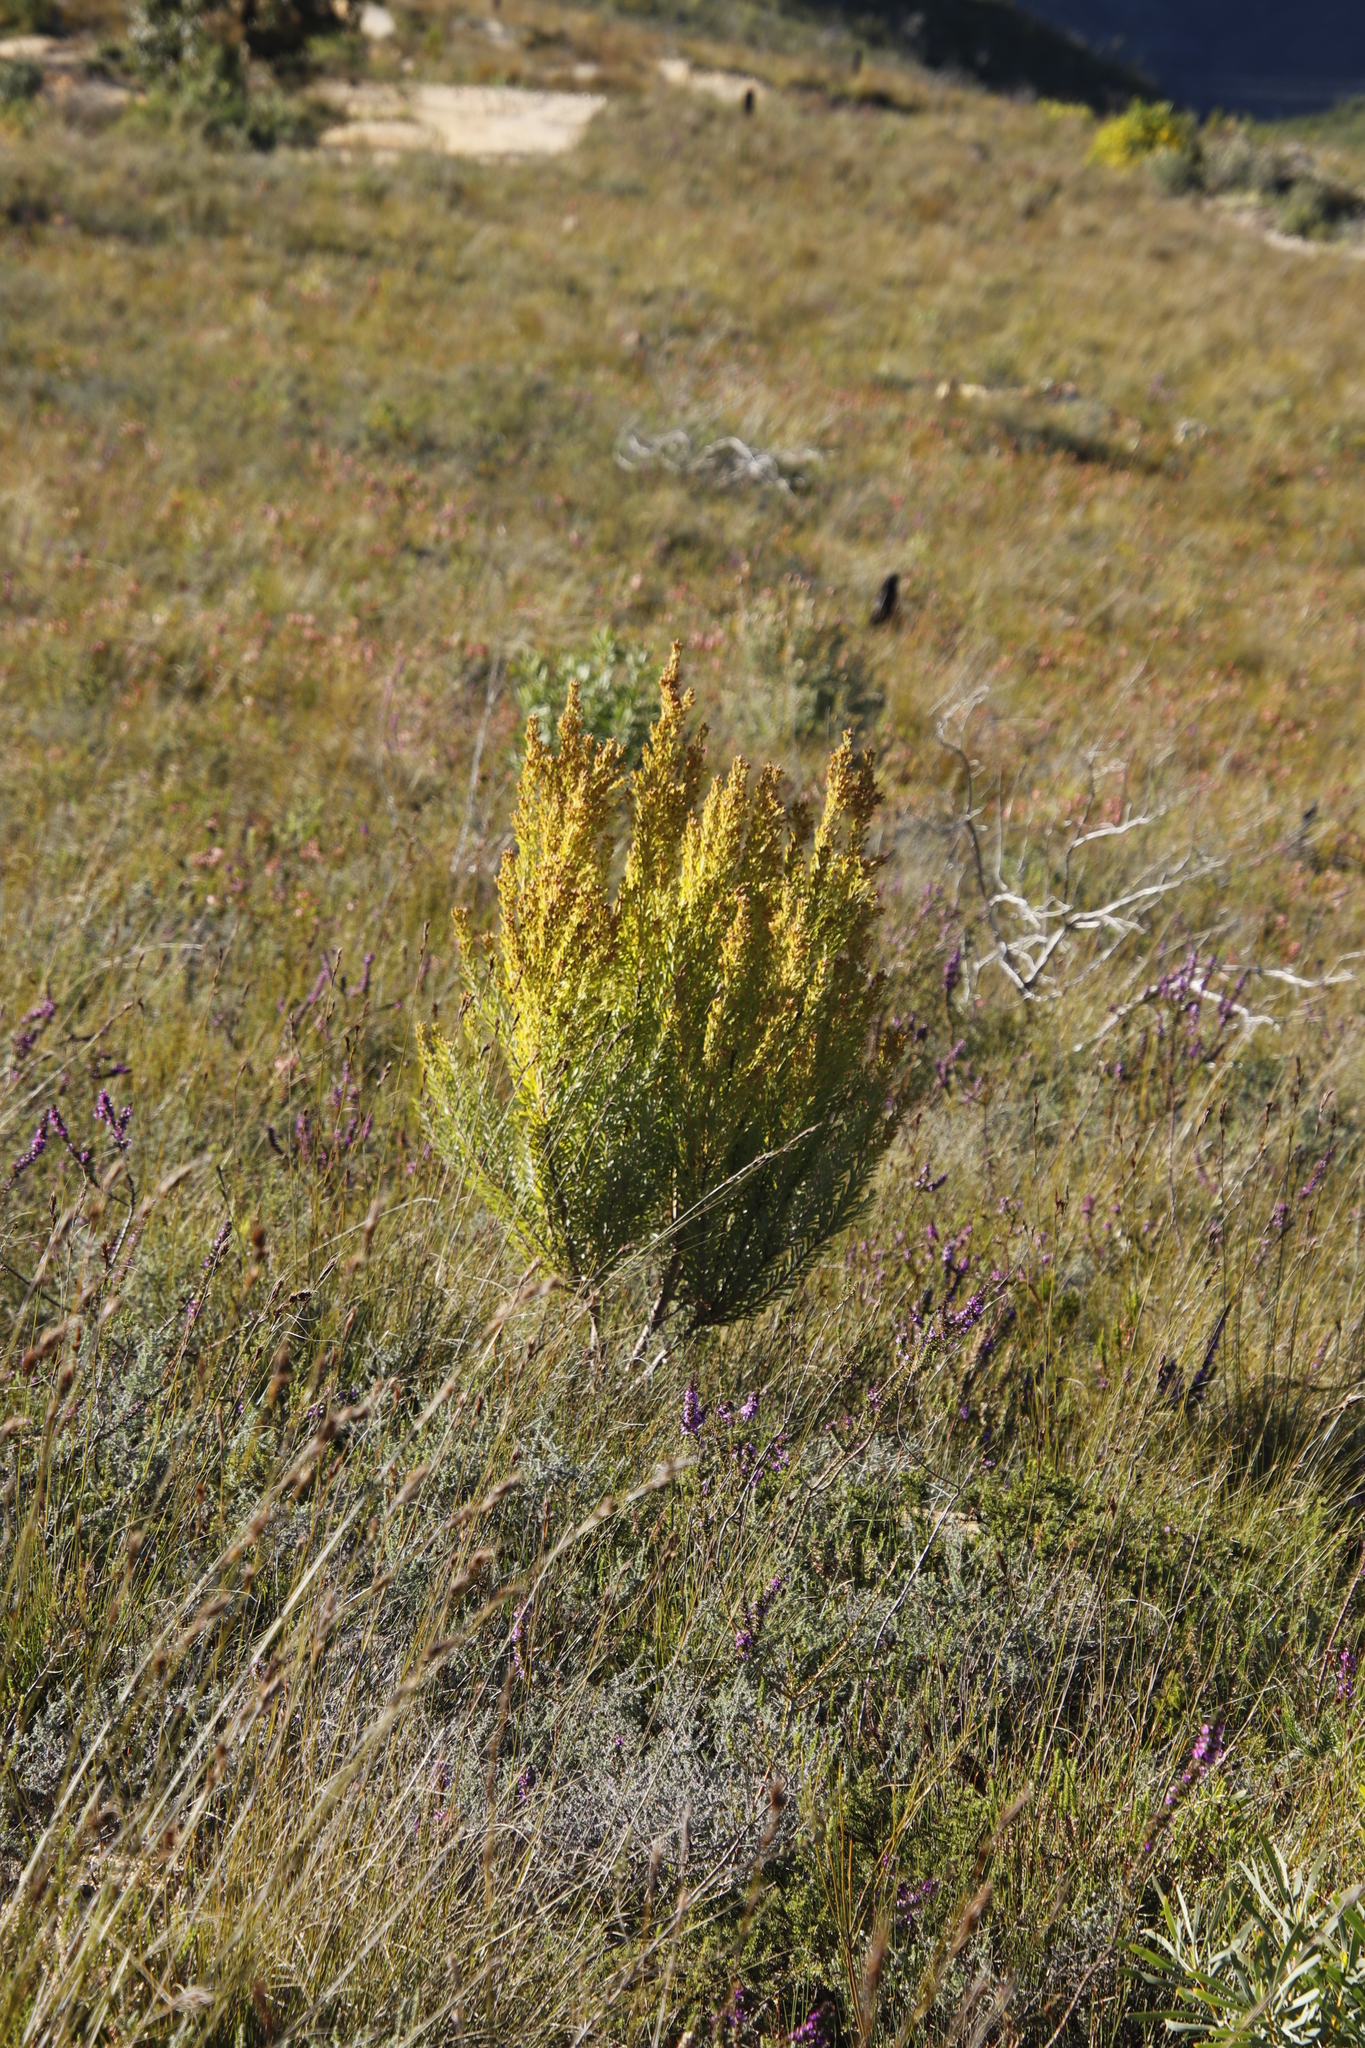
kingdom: Plantae
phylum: Tracheophyta
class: Magnoliopsida
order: Proteales
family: Proteaceae
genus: Leucadendron
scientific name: Leucadendron rubrum
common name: Spinning top
